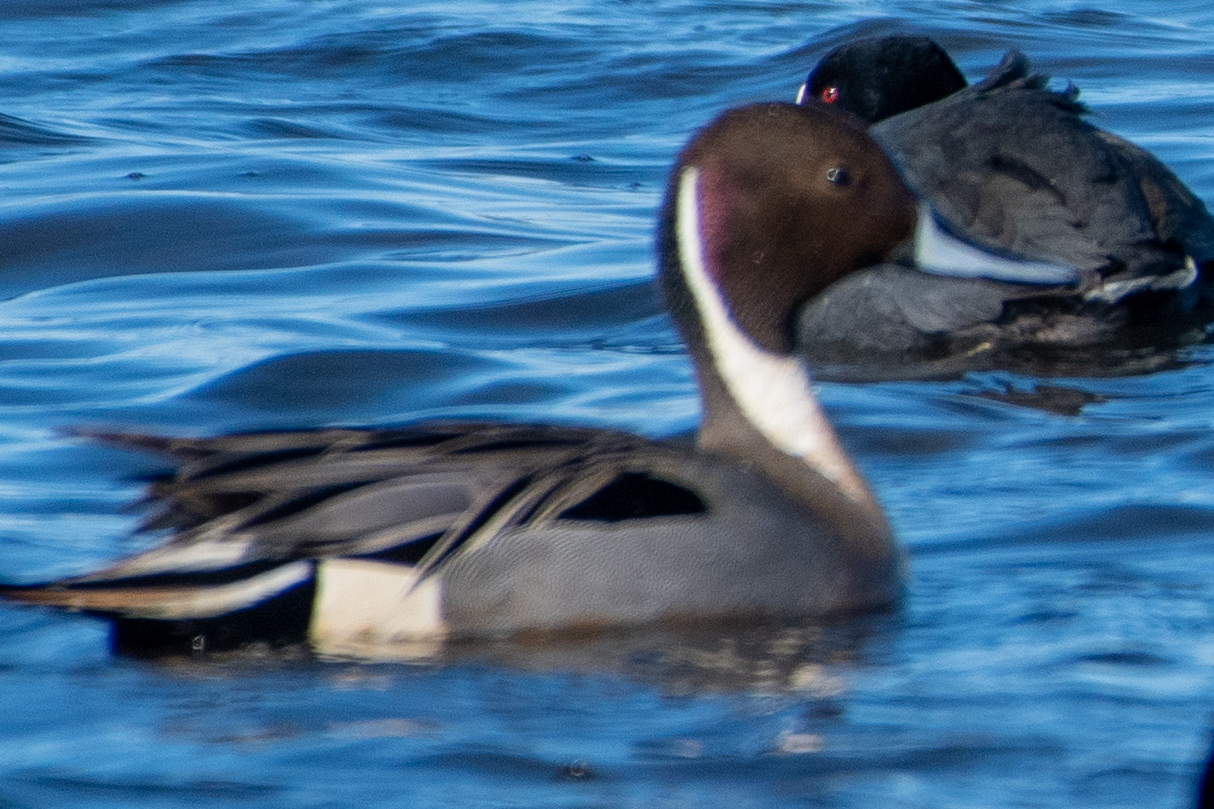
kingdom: Animalia
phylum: Chordata
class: Aves
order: Anseriformes
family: Anatidae
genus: Anas
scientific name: Anas acuta
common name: Northern pintail
